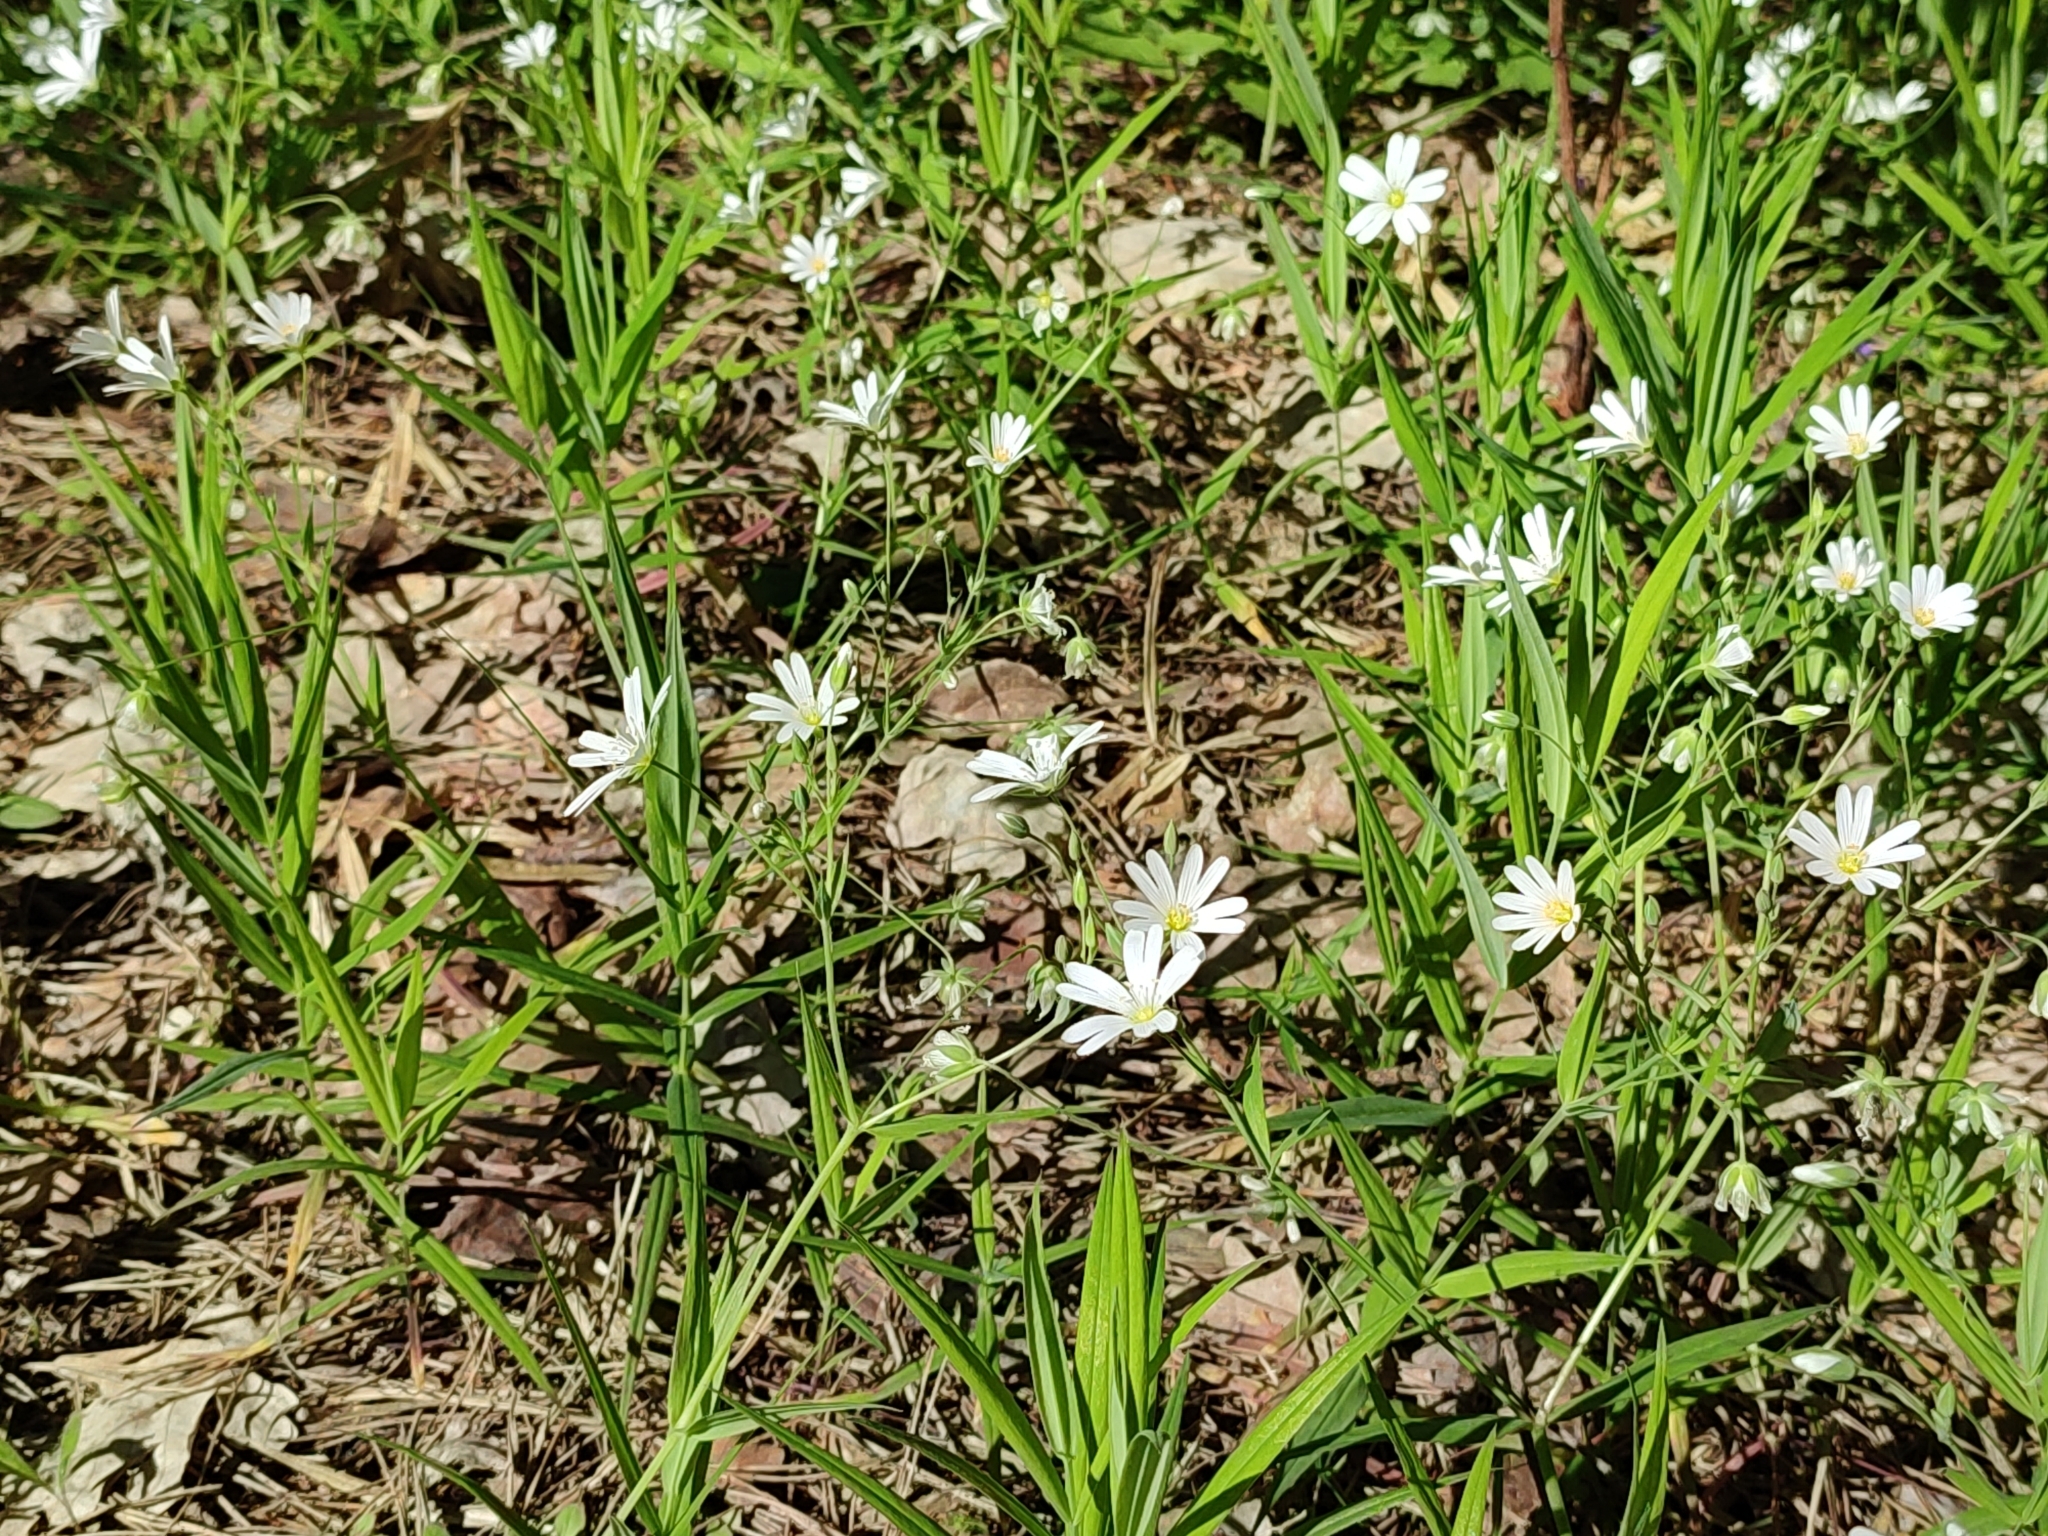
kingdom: Plantae
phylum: Tracheophyta
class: Magnoliopsida
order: Caryophyllales
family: Caryophyllaceae
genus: Rabelera
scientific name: Rabelera holostea
